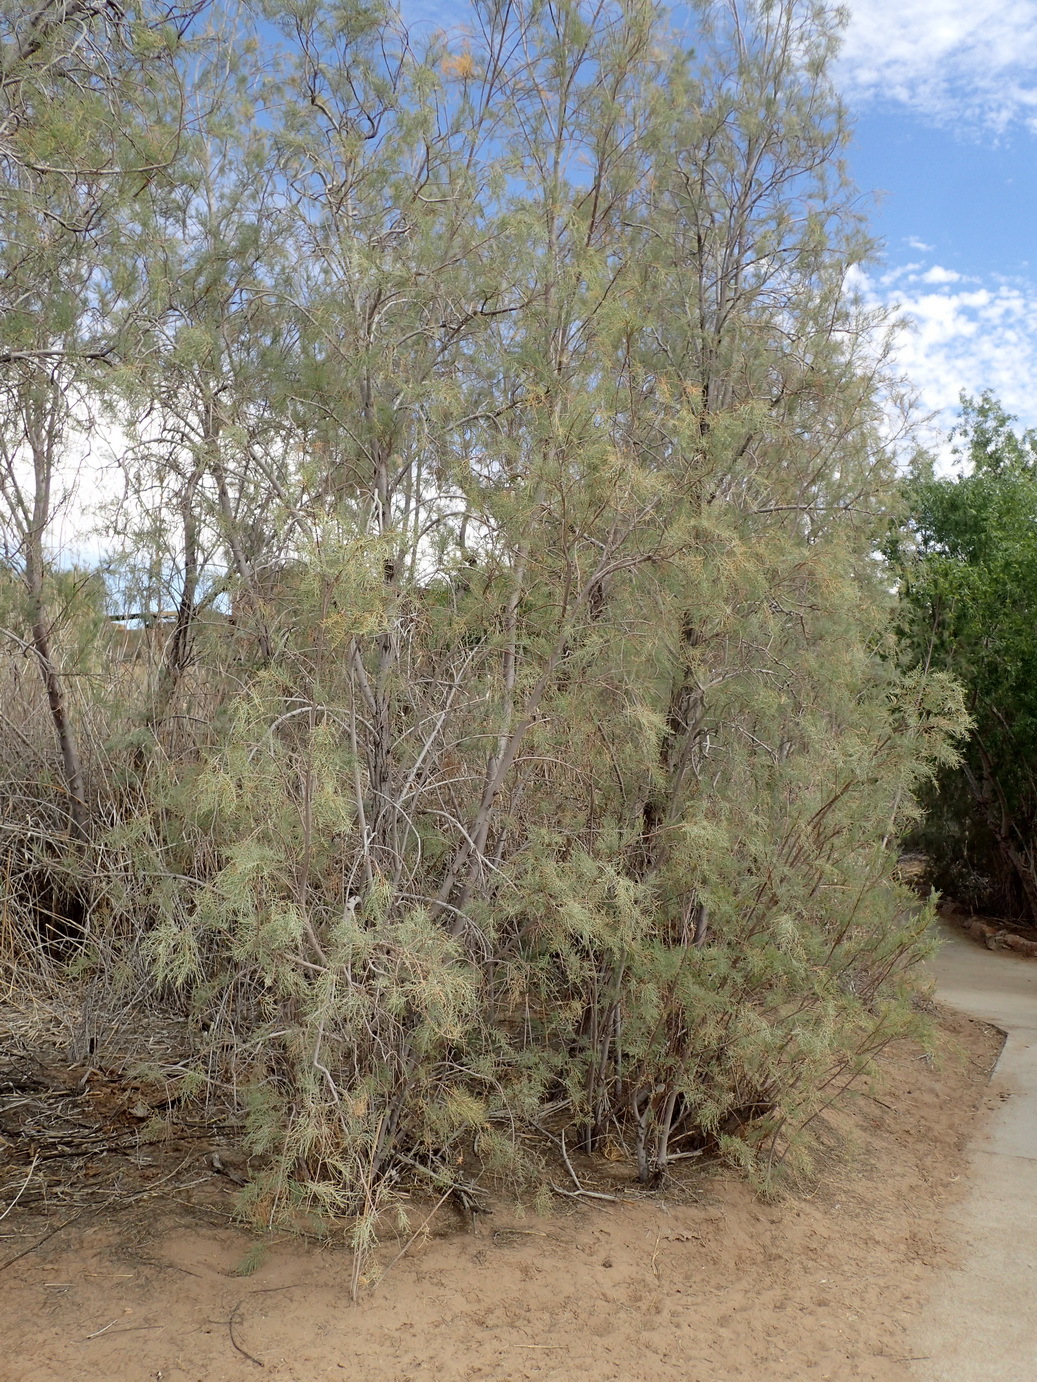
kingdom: Plantae
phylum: Tracheophyta
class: Magnoliopsida
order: Caryophyllales
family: Tamaricaceae
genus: Tamarix
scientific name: Tamarix usneoides
